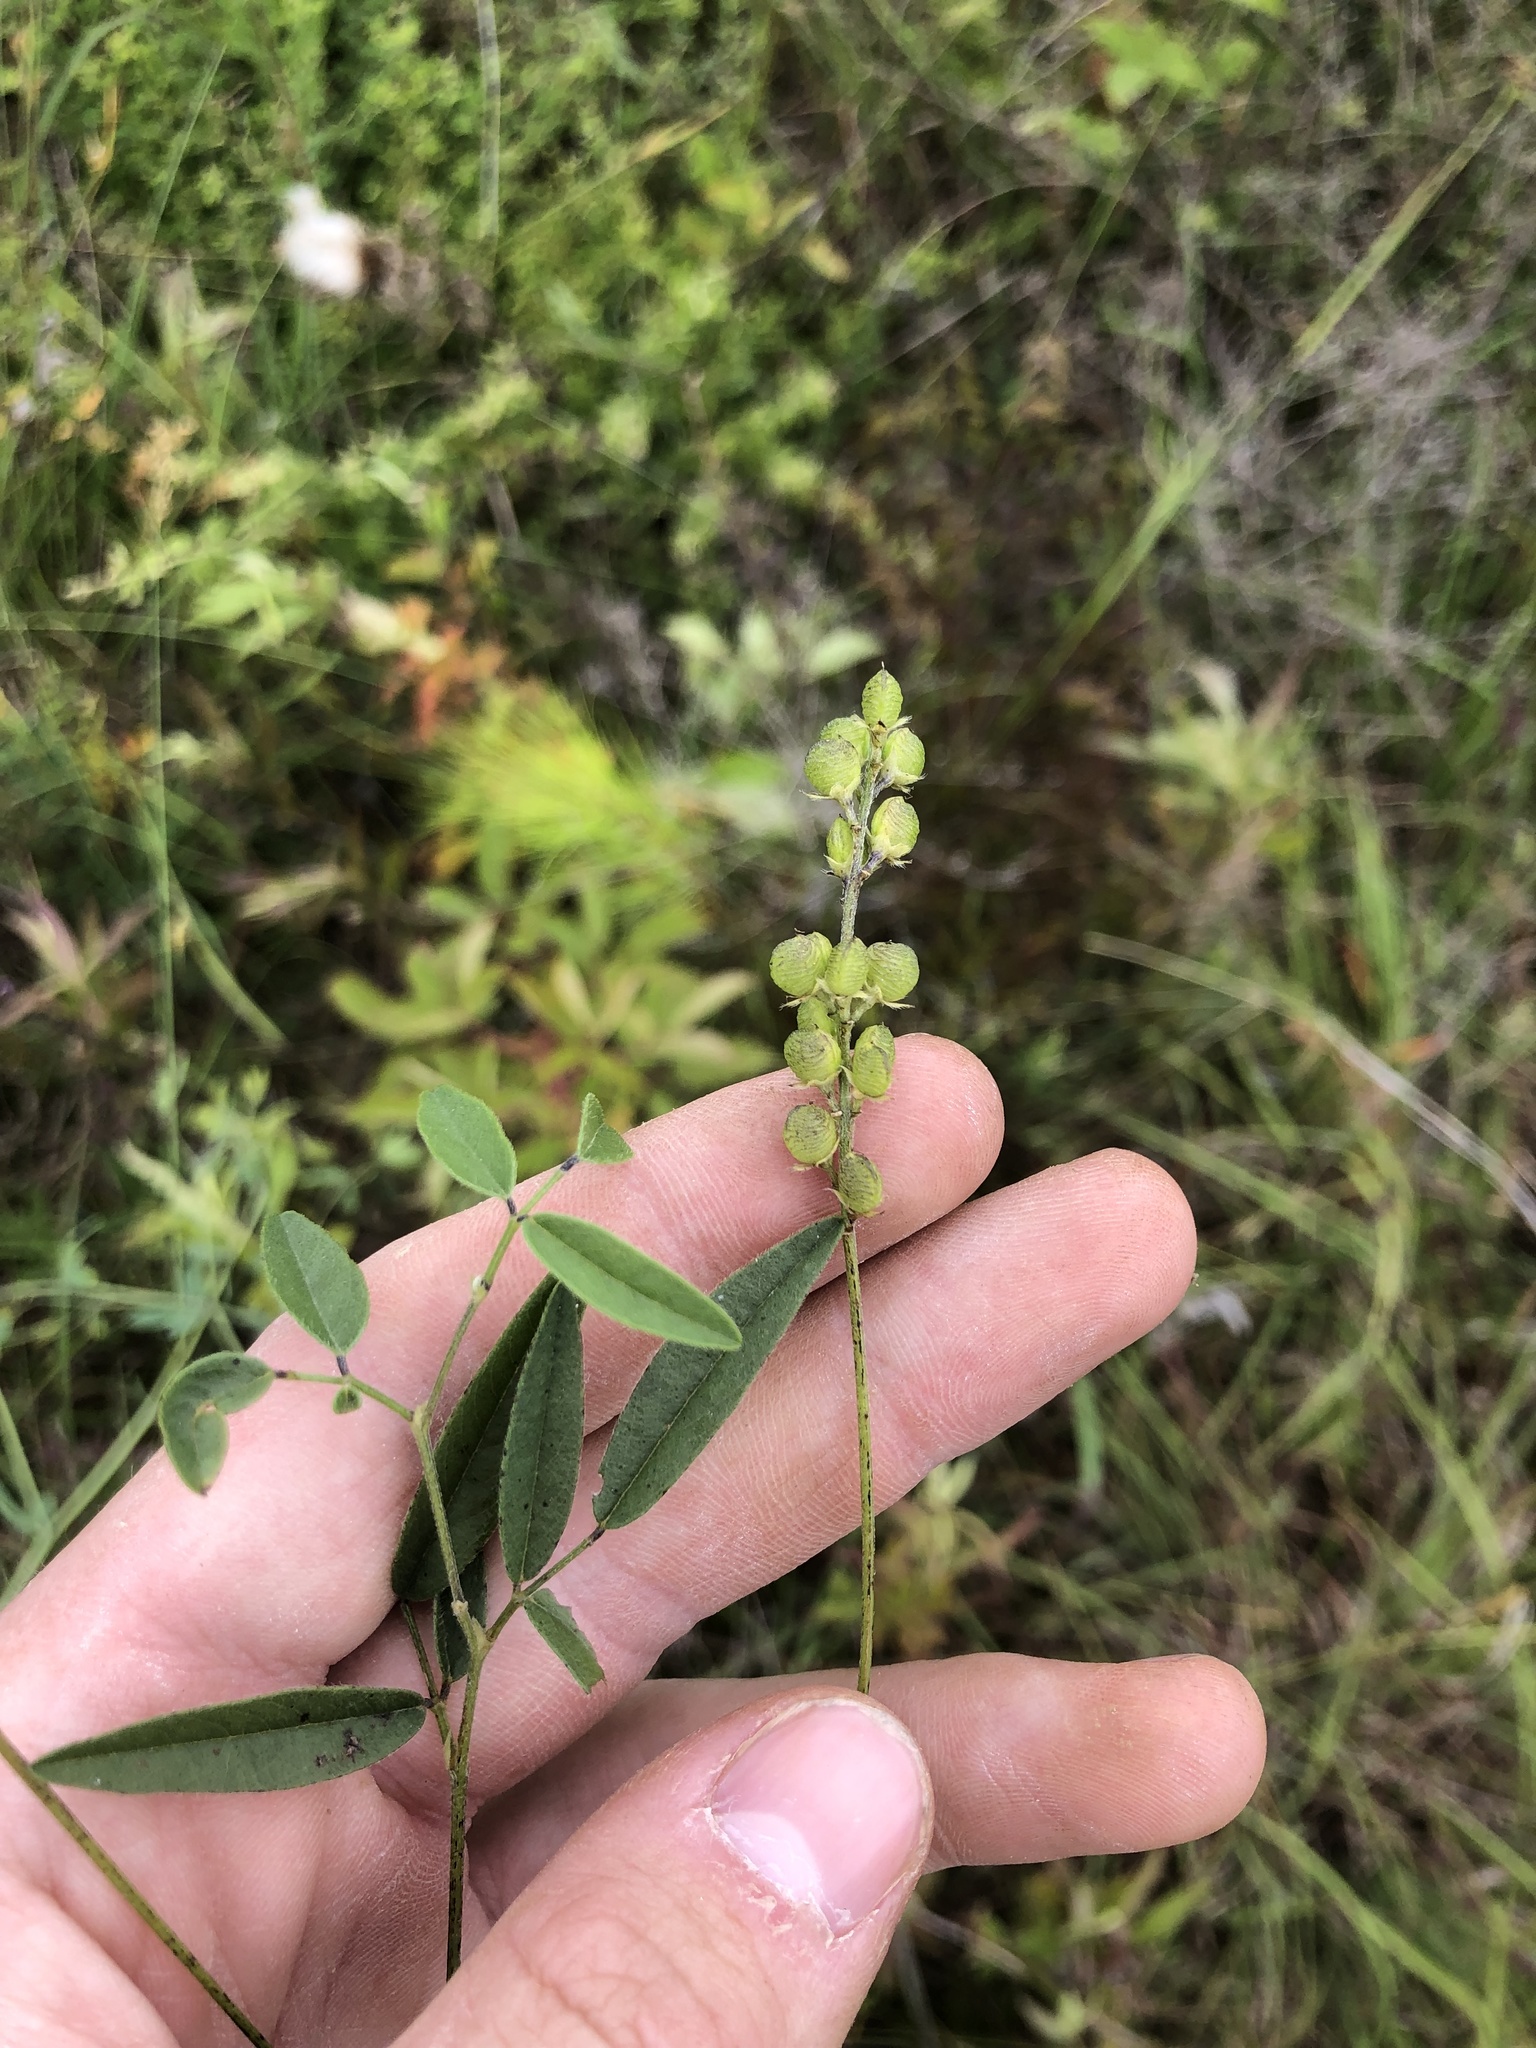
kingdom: Plantae
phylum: Tracheophyta
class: Magnoliopsida
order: Fabales
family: Fabaceae
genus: Orbexilum
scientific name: Orbexilum pedunculatum
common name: Sampson's snakeroot
